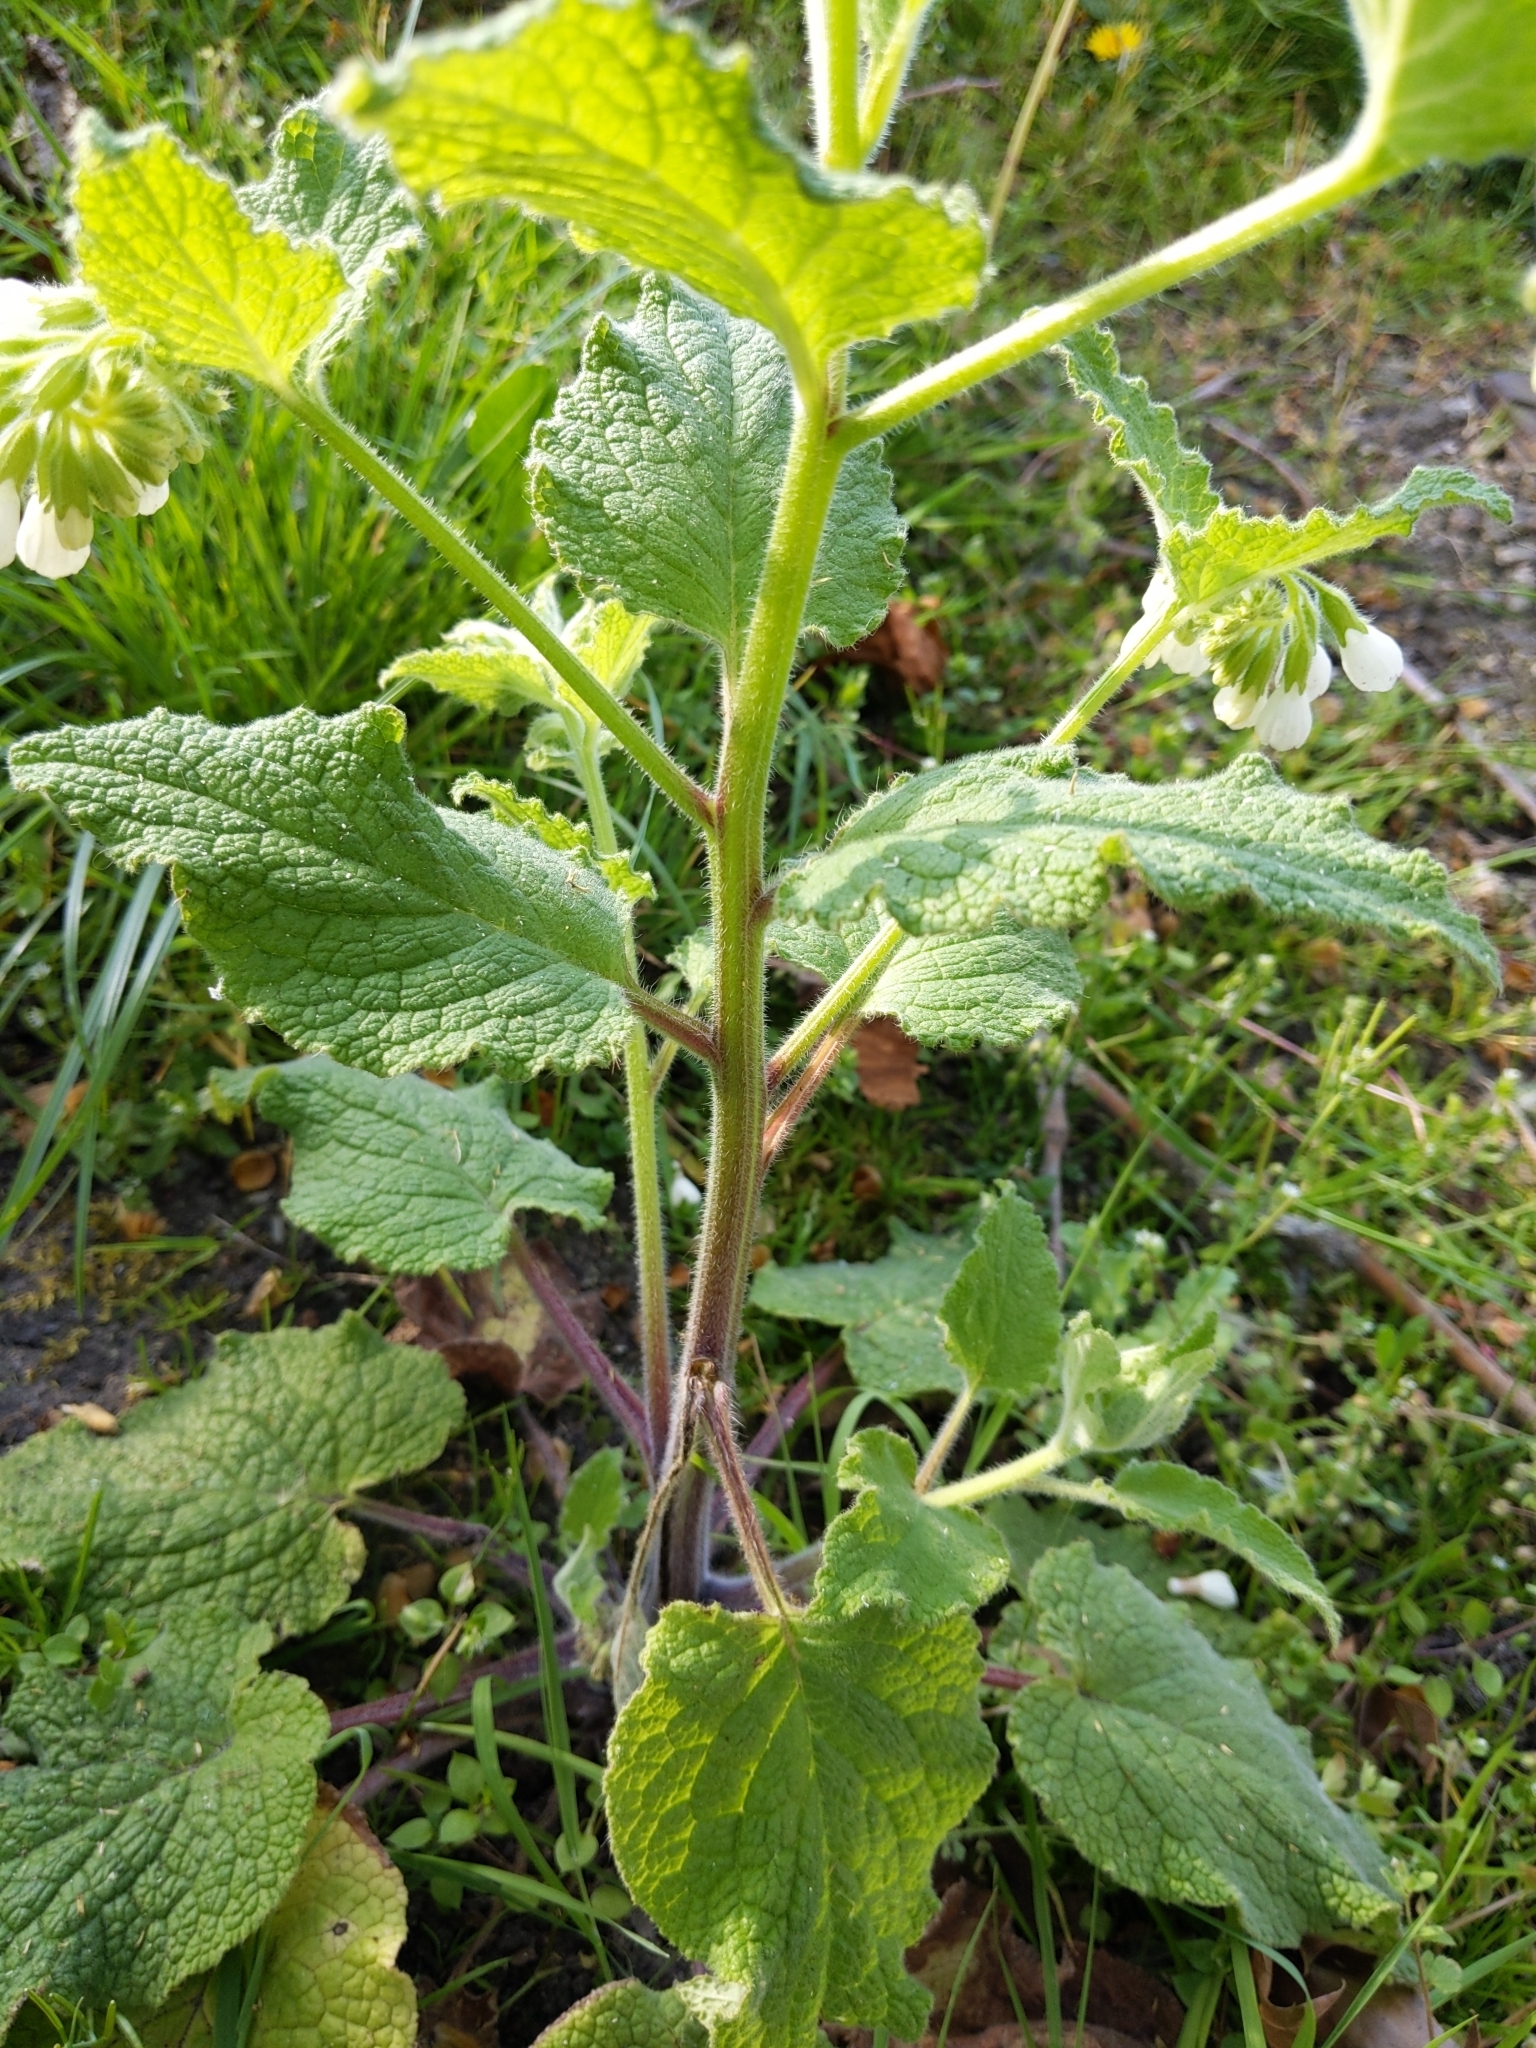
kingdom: Plantae
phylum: Tracheophyta
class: Magnoliopsida
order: Boraginales
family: Boraginaceae
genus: Symphytum
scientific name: Symphytum orientale
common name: White comfrey
